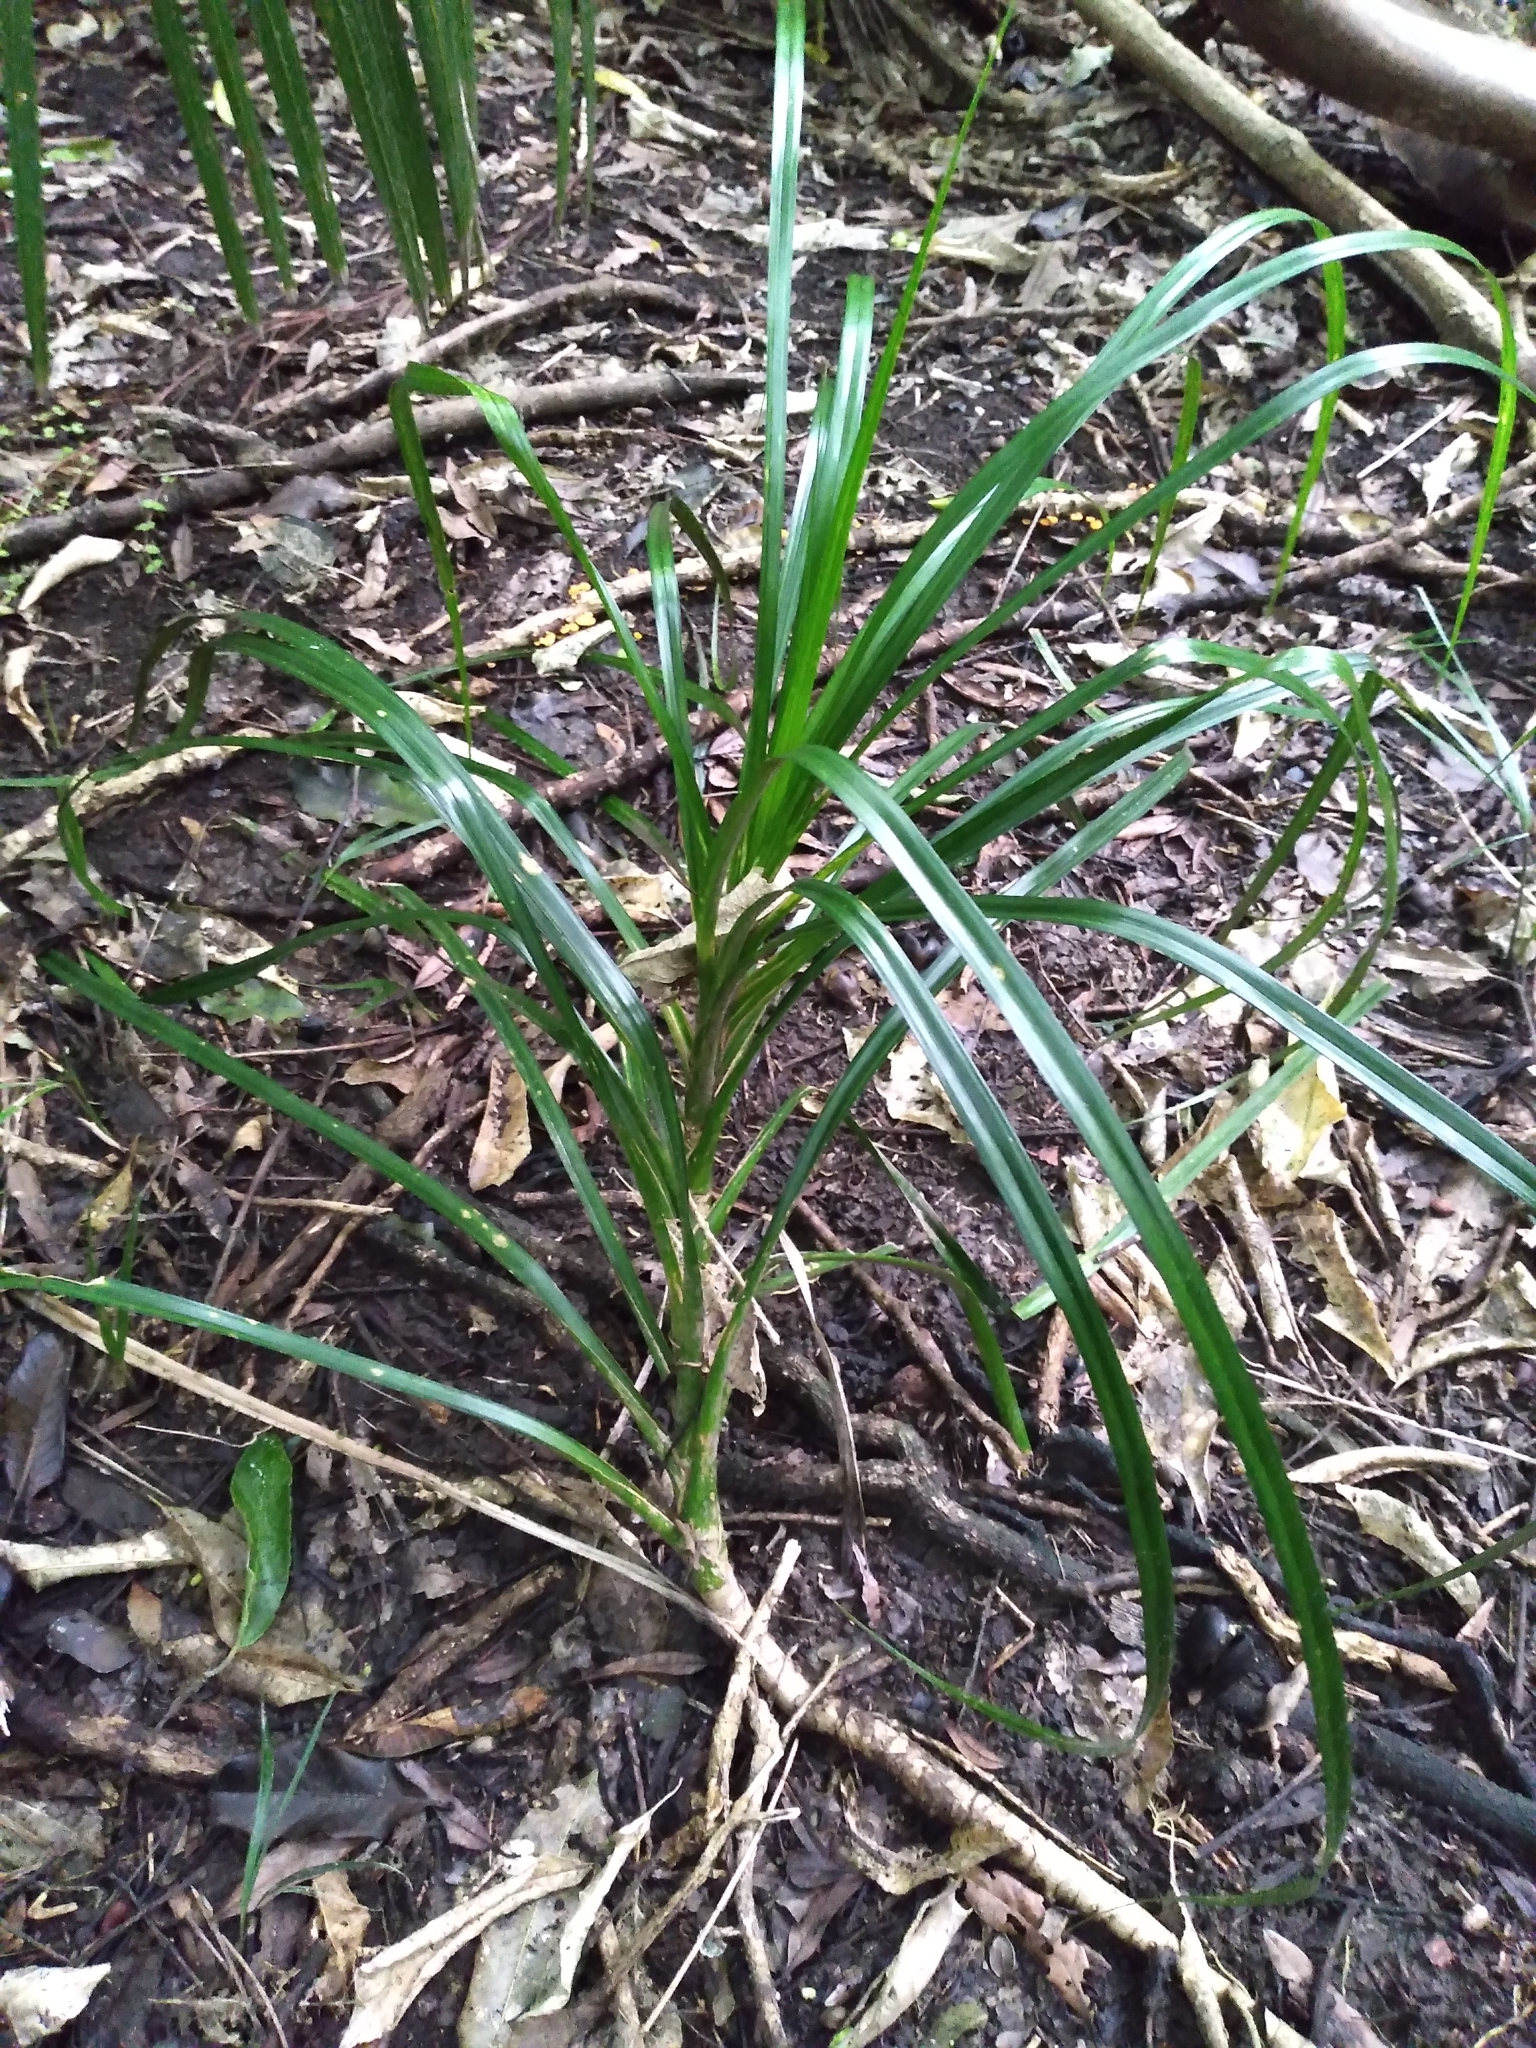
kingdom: Plantae
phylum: Tracheophyta
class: Liliopsida
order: Pandanales
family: Pandanaceae
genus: Freycinetia
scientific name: Freycinetia banksii
